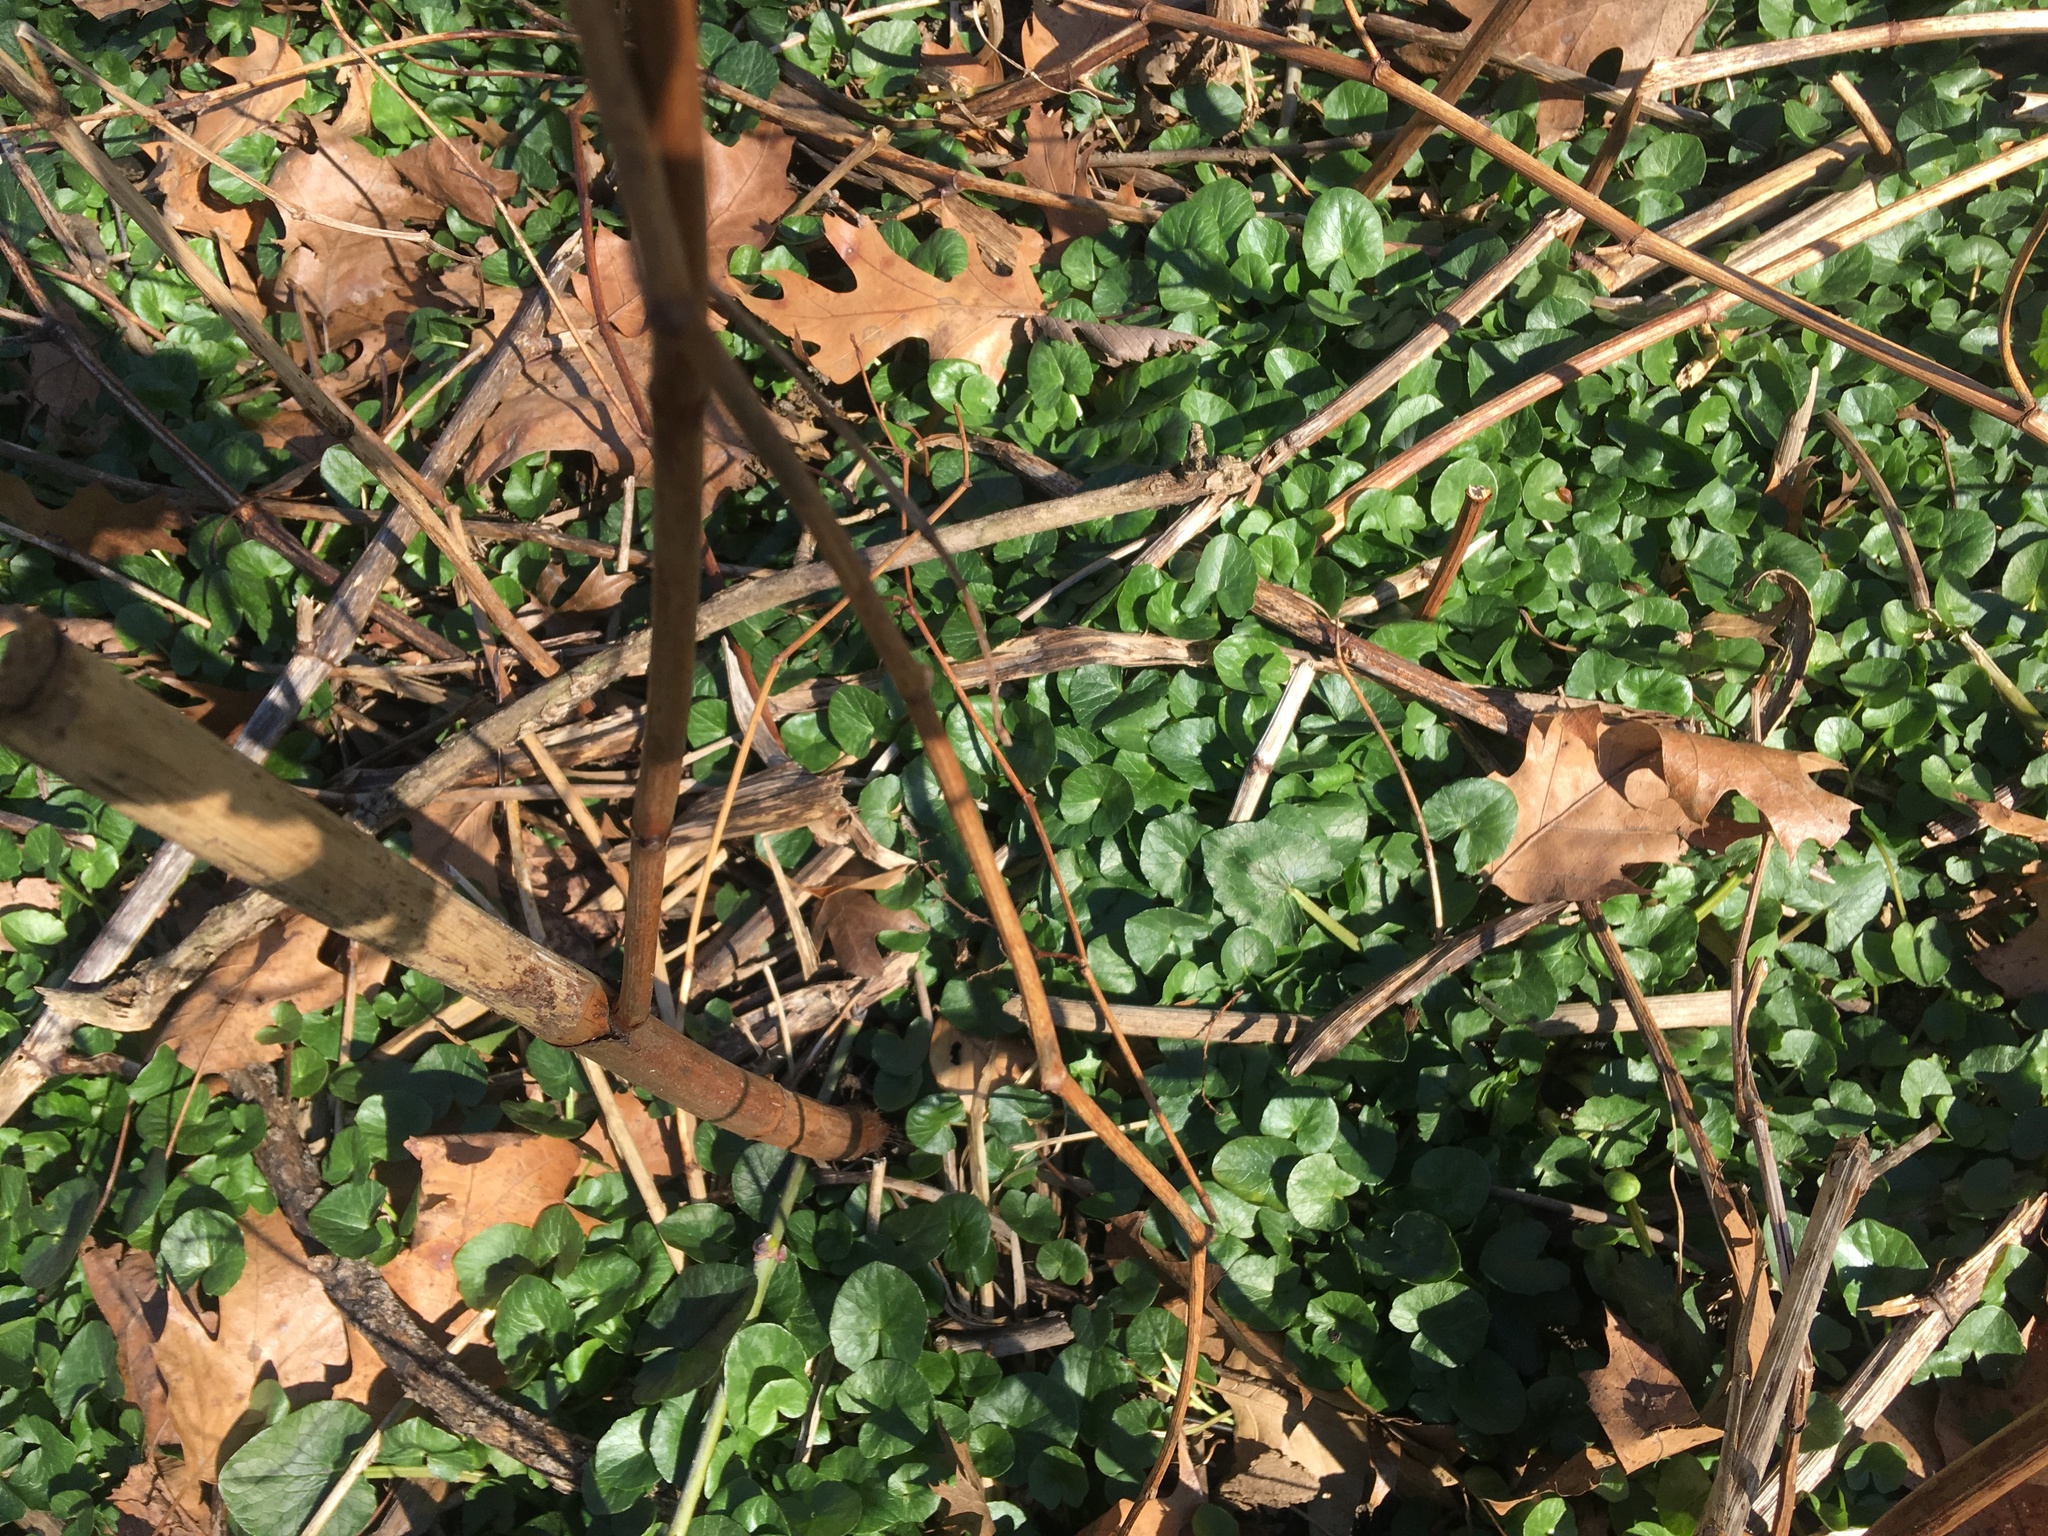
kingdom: Plantae
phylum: Tracheophyta
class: Magnoliopsida
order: Ranunculales
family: Ranunculaceae
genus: Ficaria
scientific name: Ficaria verna
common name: Lesser celandine
